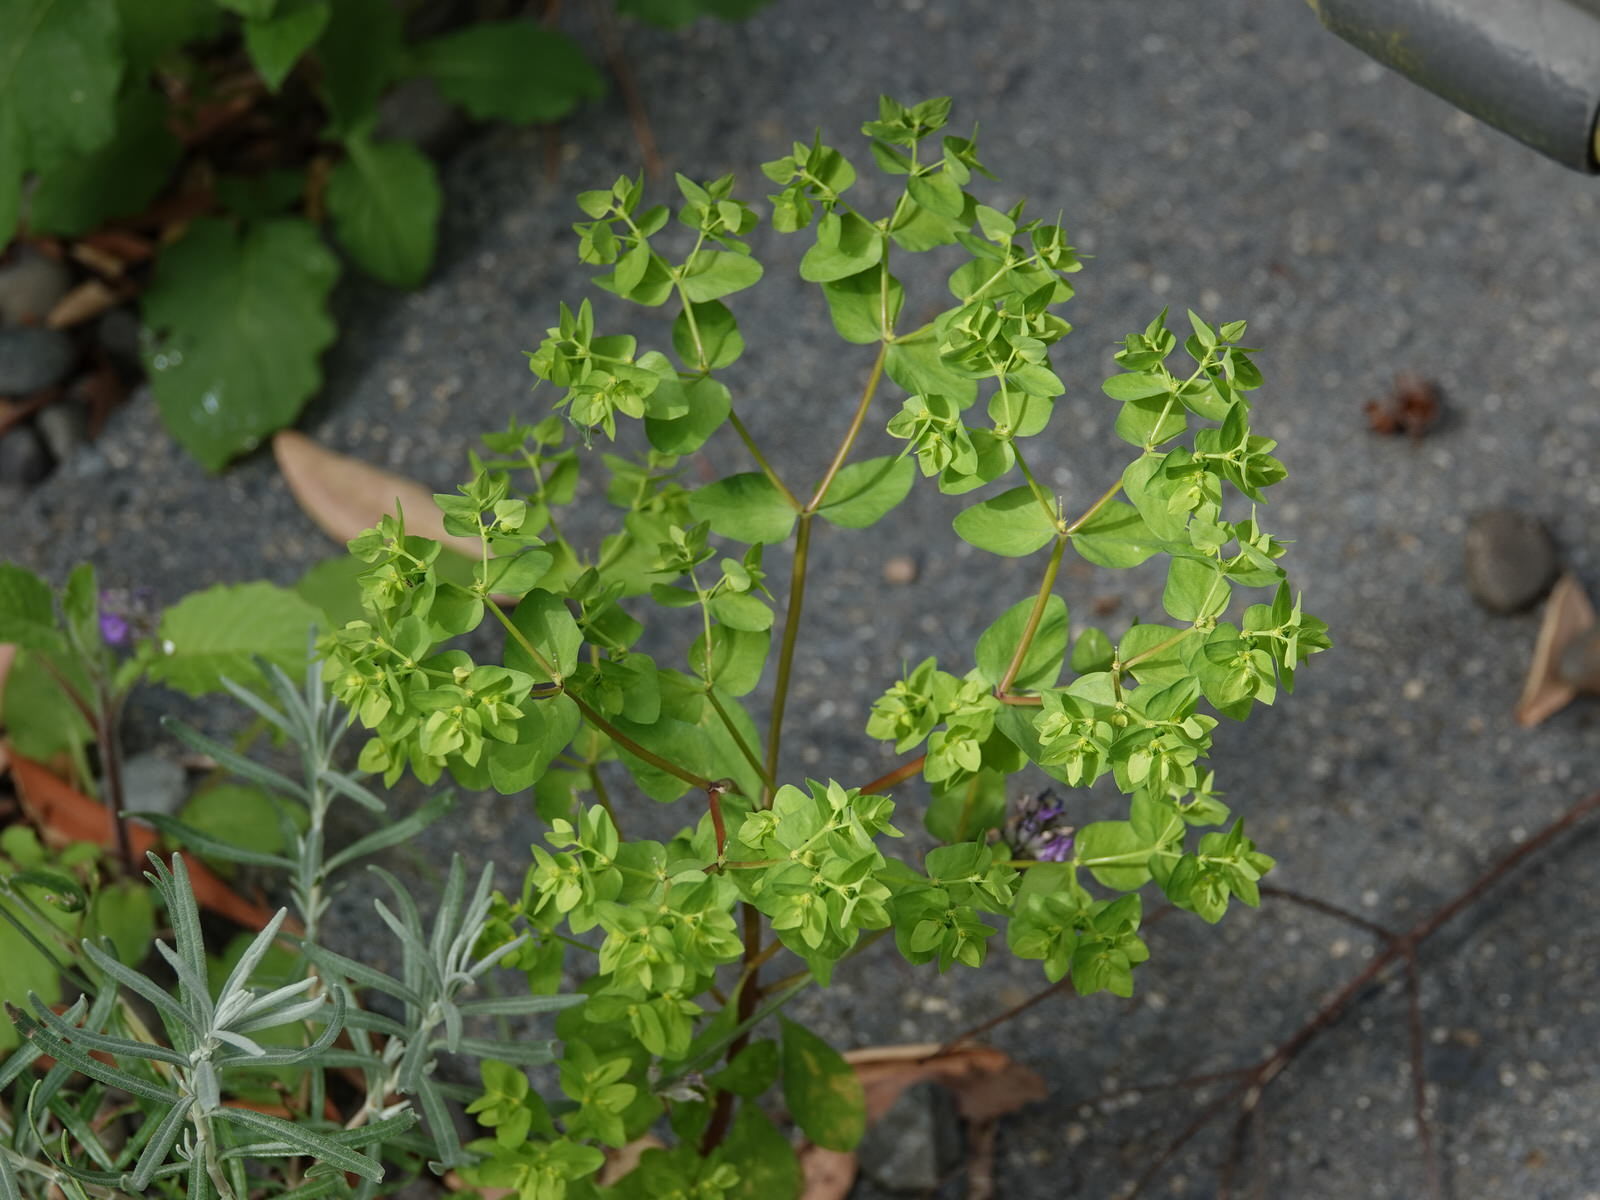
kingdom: Plantae
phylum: Tracheophyta
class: Magnoliopsida
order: Malpighiales
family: Euphorbiaceae
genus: Euphorbia
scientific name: Euphorbia peplus
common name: Petty spurge
